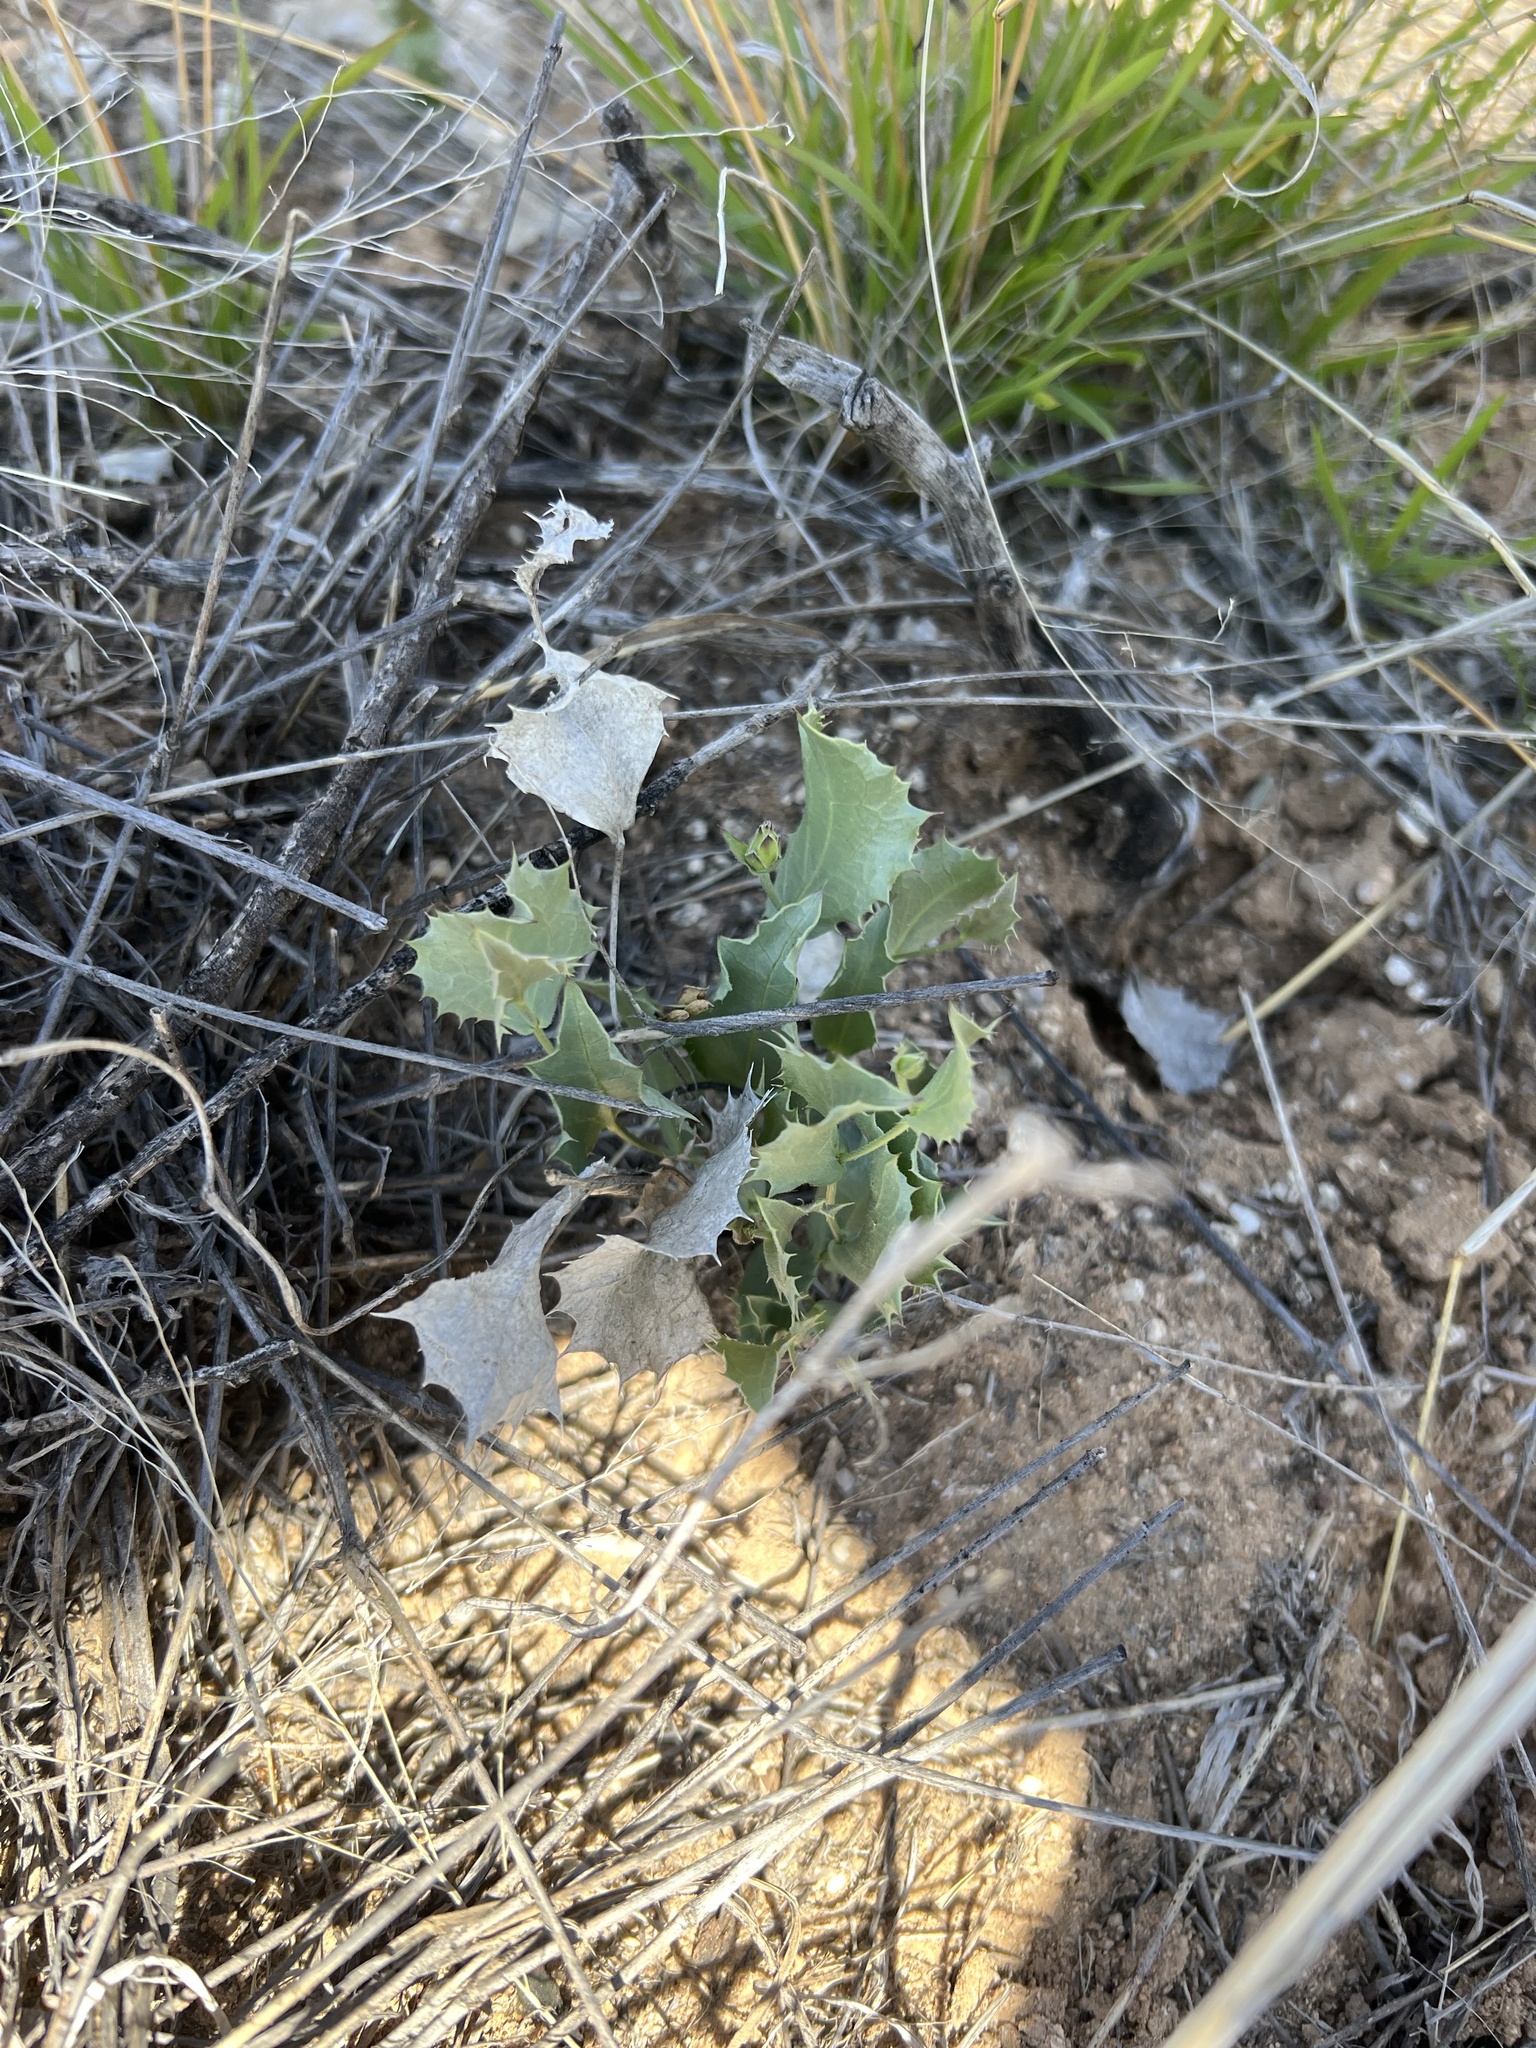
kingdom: Plantae
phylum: Tracheophyta
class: Magnoliopsida
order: Asterales
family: Asteraceae
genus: Acourtia
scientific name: Acourtia nana
